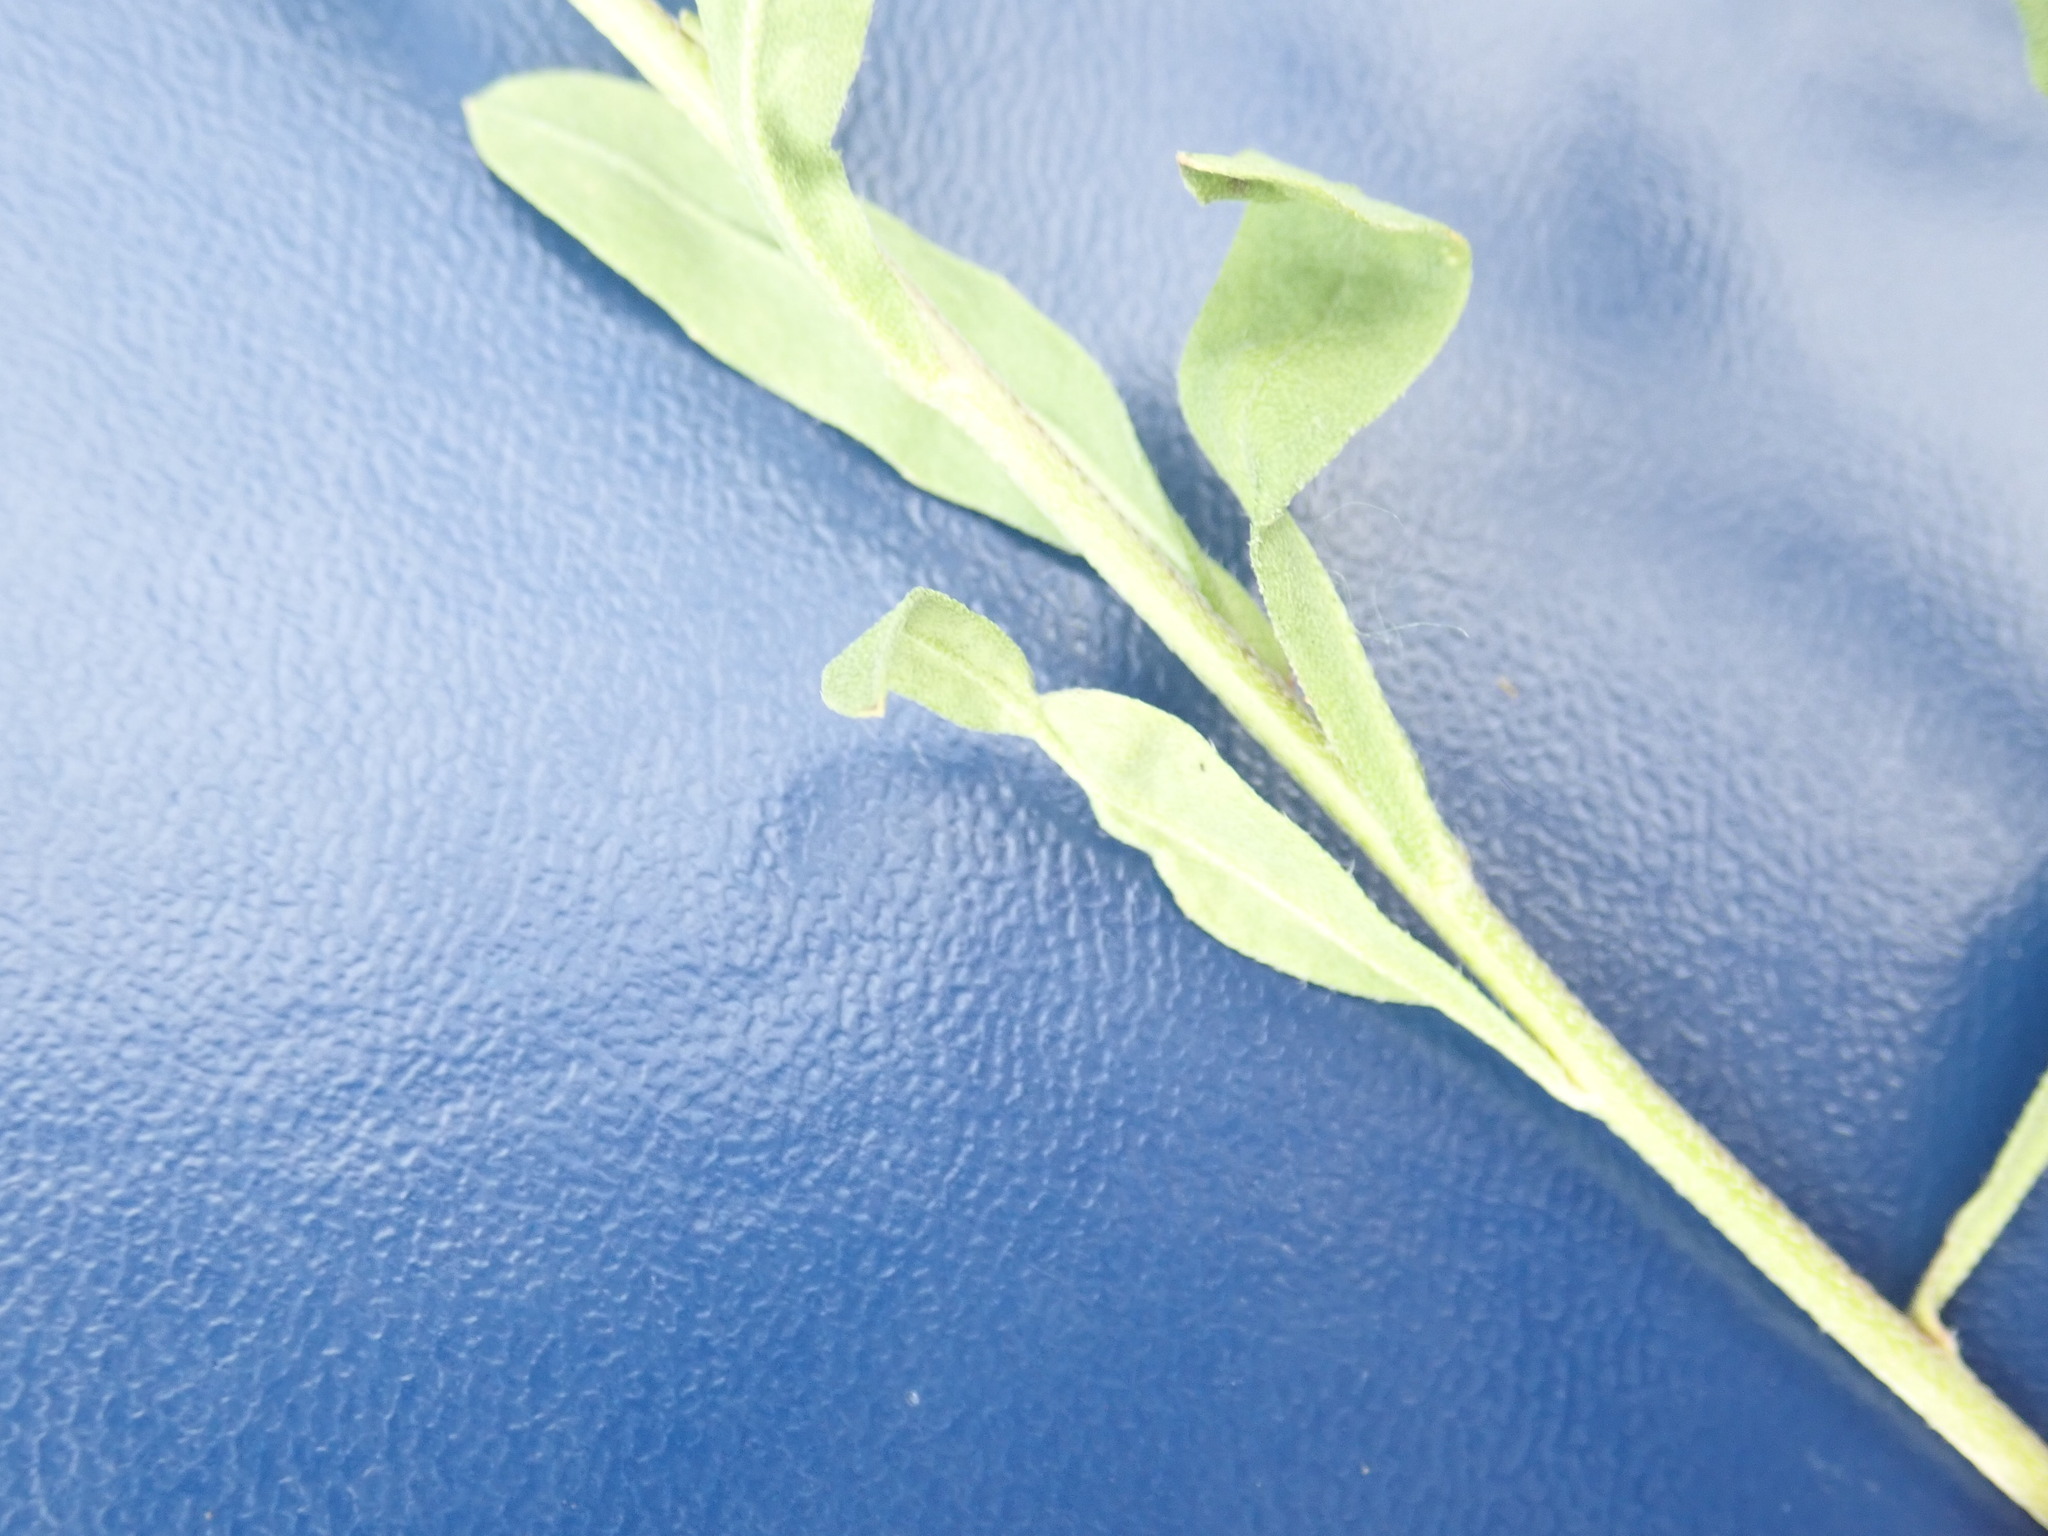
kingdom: Plantae
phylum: Tracheophyta
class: Magnoliopsida
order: Brassicales
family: Brassicaceae
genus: Berteroa
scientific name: Berteroa incana
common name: Hoary alison
